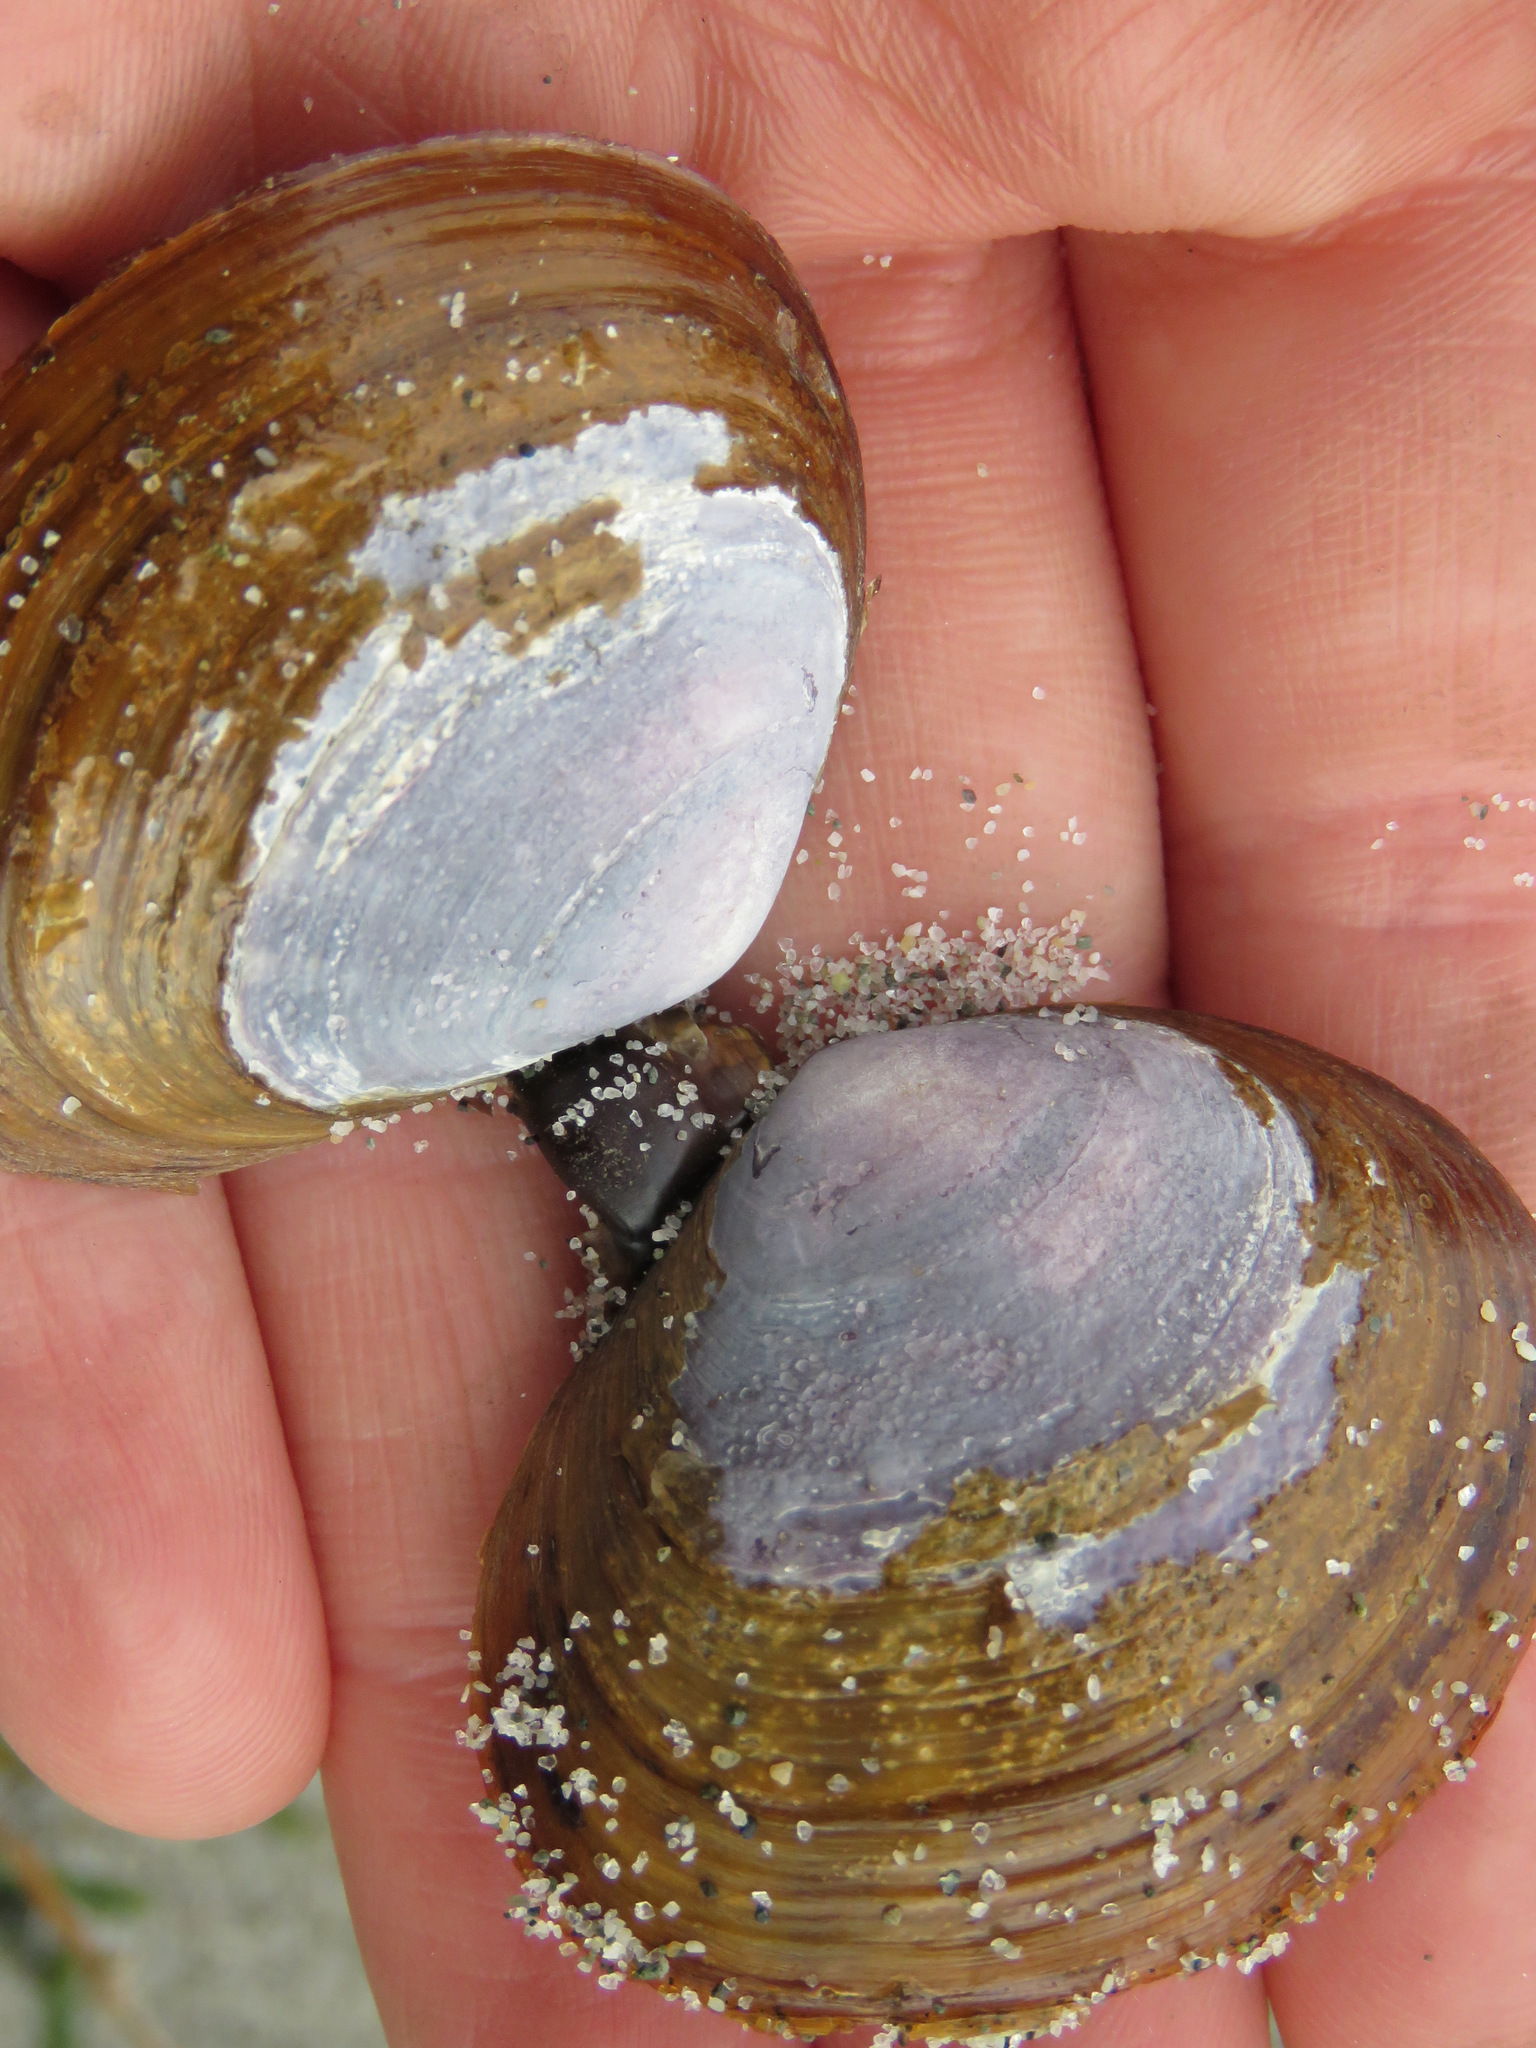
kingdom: Animalia
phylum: Mollusca
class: Bivalvia
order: Cardiida
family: Psammobiidae
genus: Nuttallia
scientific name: Nuttallia obscurata
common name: Purple mahogany-clam
